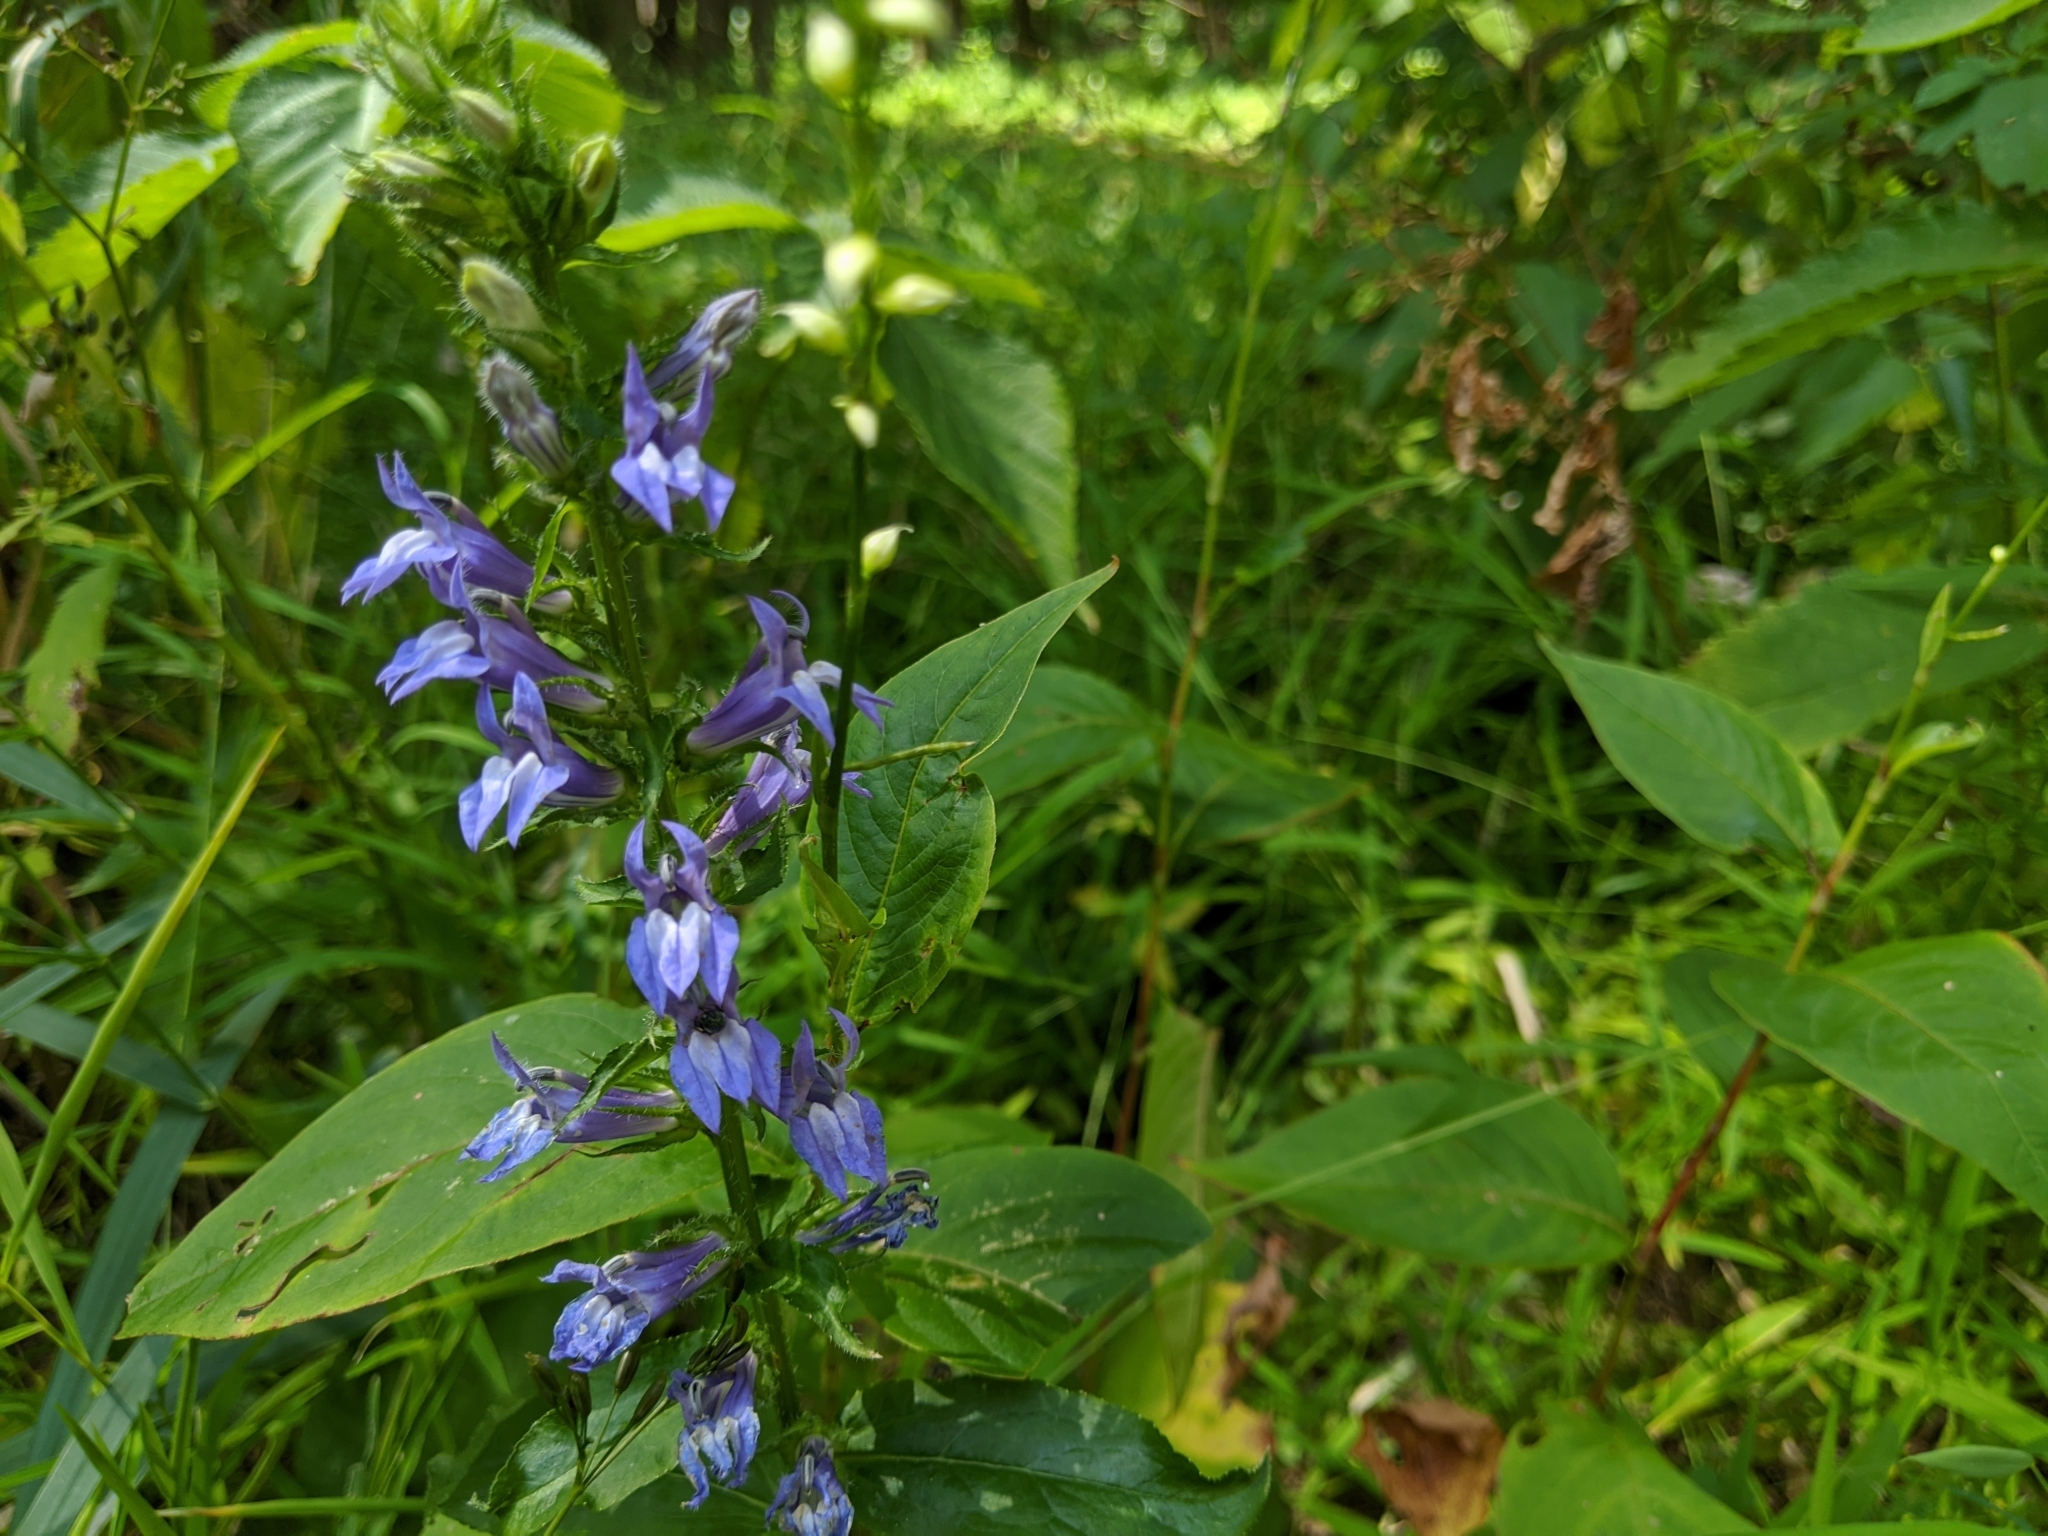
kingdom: Plantae
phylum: Tracheophyta
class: Magnoliopsida
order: Asterales
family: Campanulaceae
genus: Lobelia
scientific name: Lobelia siphilitica
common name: Great lobelia
